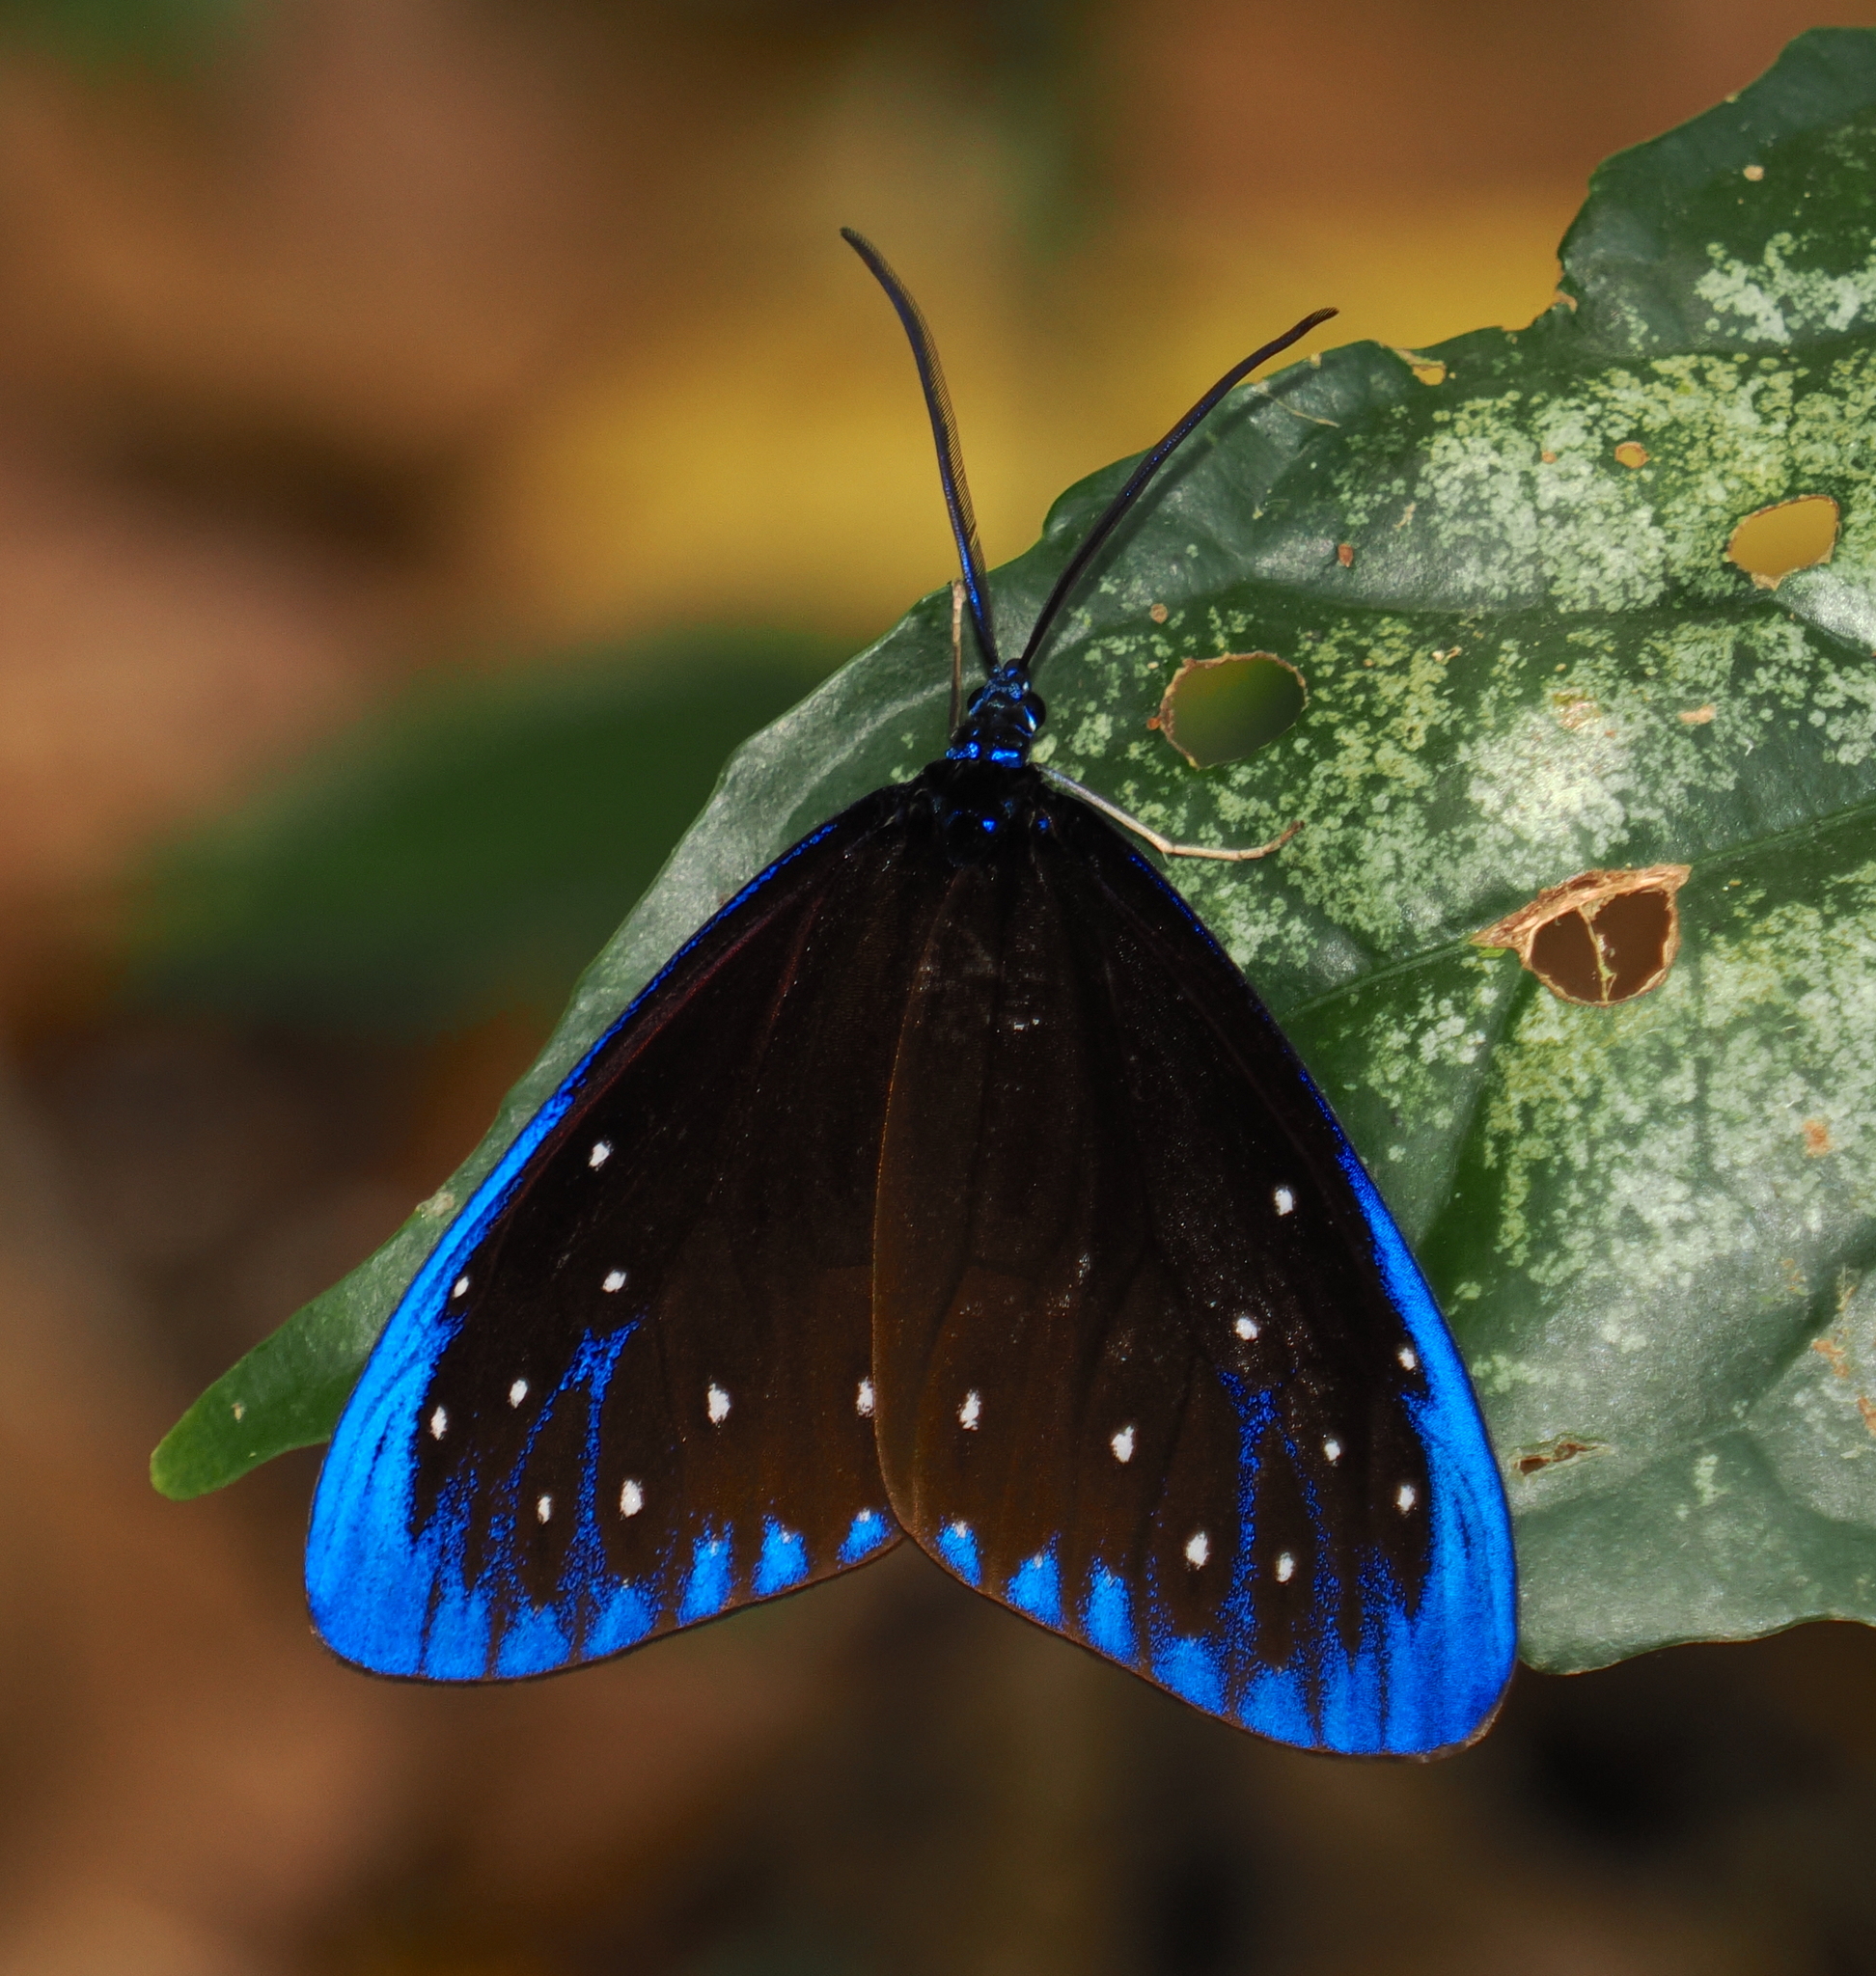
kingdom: Animalia
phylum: Arthropoda
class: Insecta
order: Lepidoptera
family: Zygaenidae
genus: Cyclosia
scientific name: Cyclosia midama
